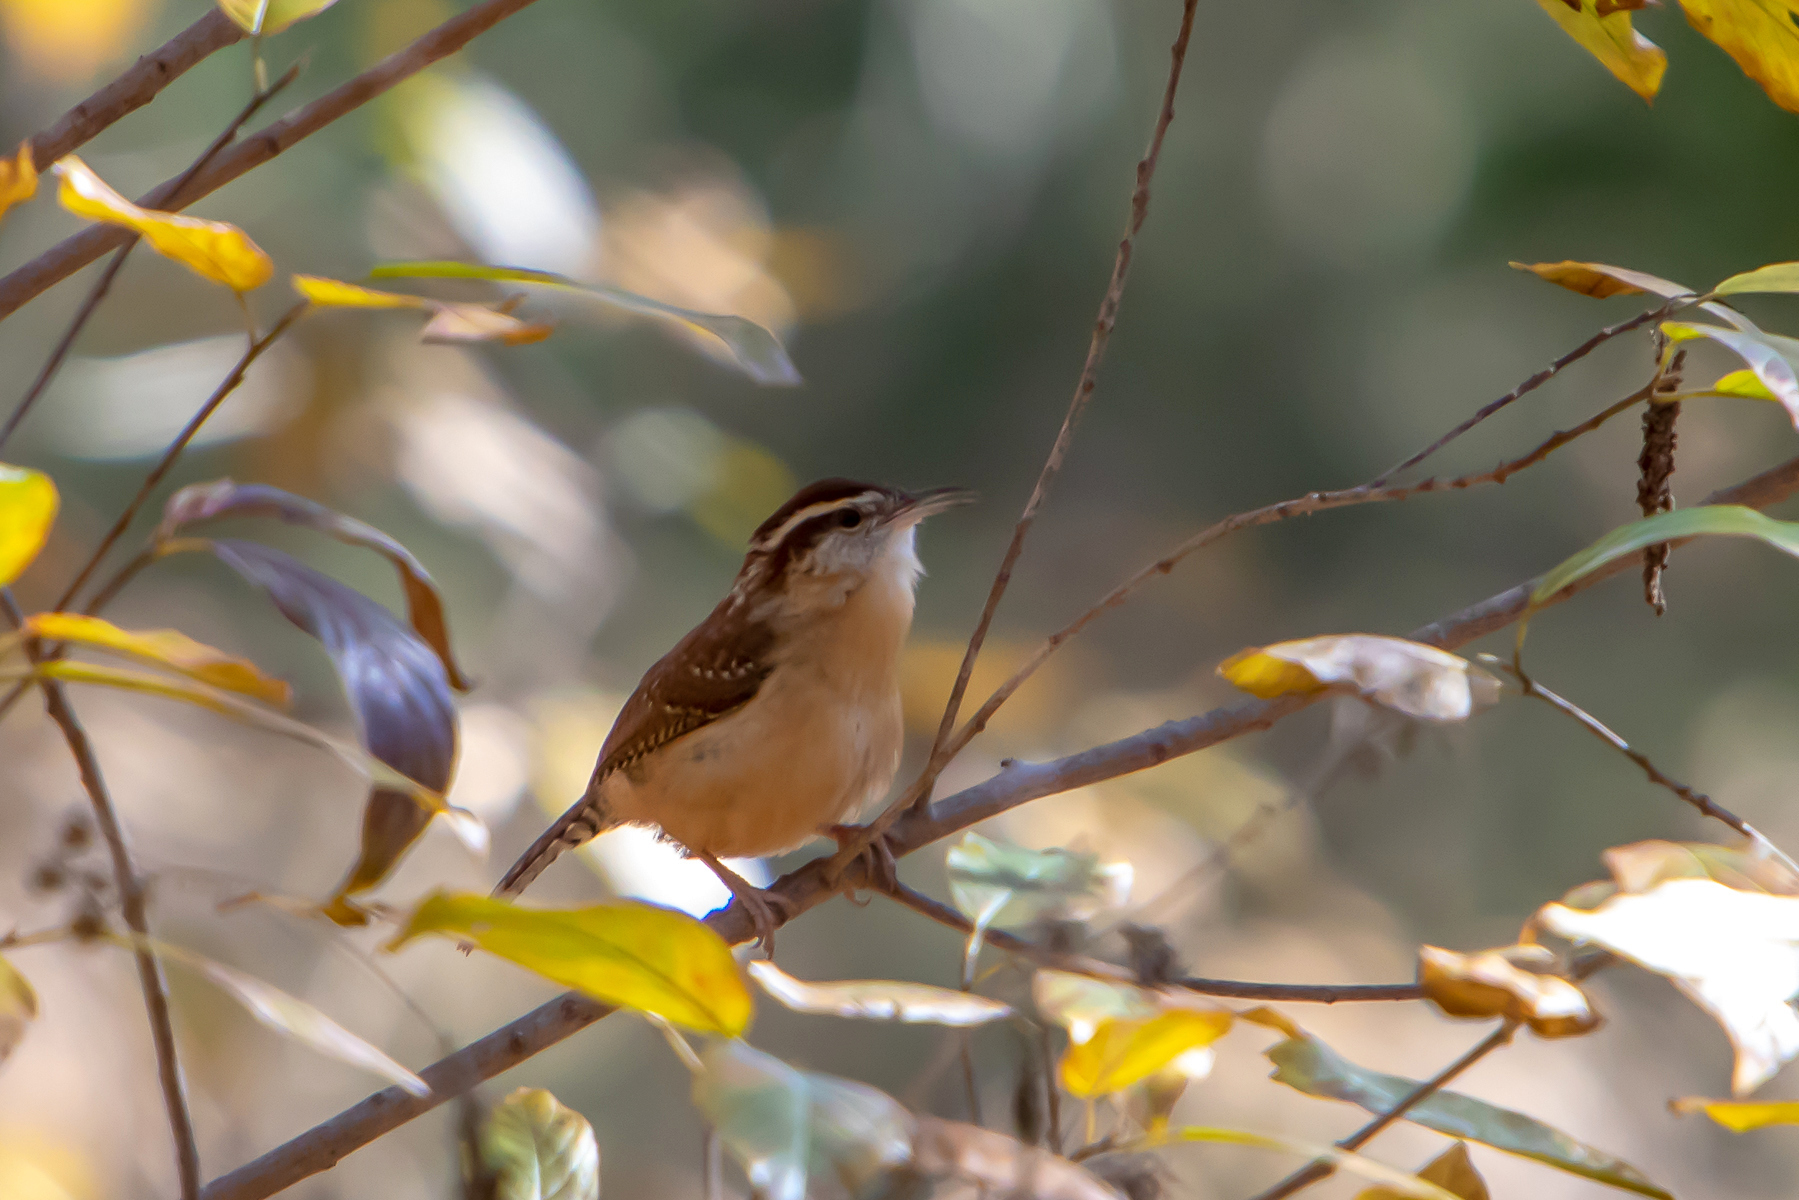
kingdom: Animalia
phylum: Chordata
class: Aves
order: Passeriformes
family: Troglodytidae
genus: Thryothorus
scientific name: Thryothorus ludovicianus
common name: Carolina wren
